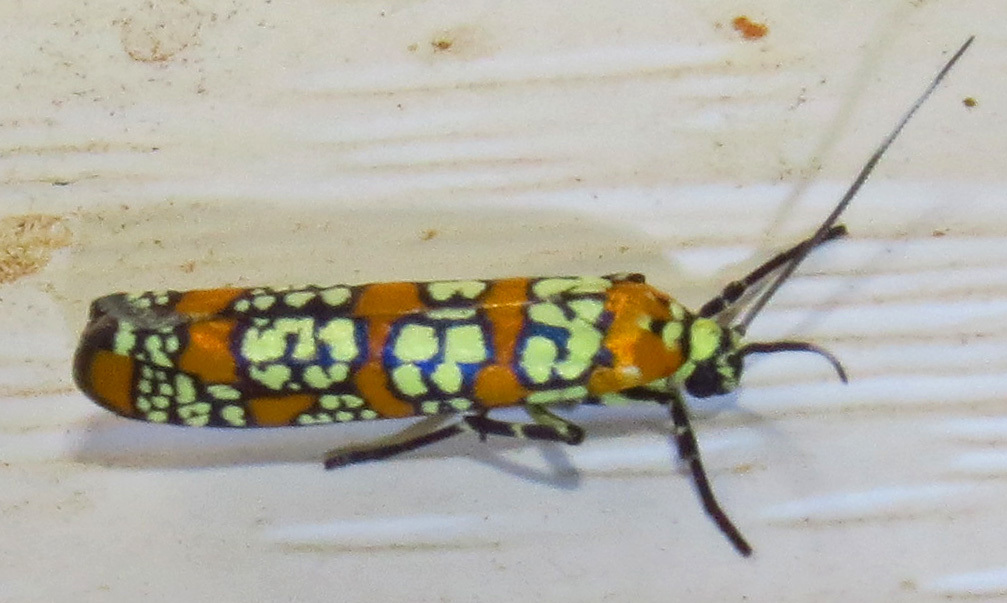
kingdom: Animalia
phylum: Arthropoda
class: Insecta
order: Lepidoptera
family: Attevidae
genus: Atteva
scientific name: Atteva punctella
